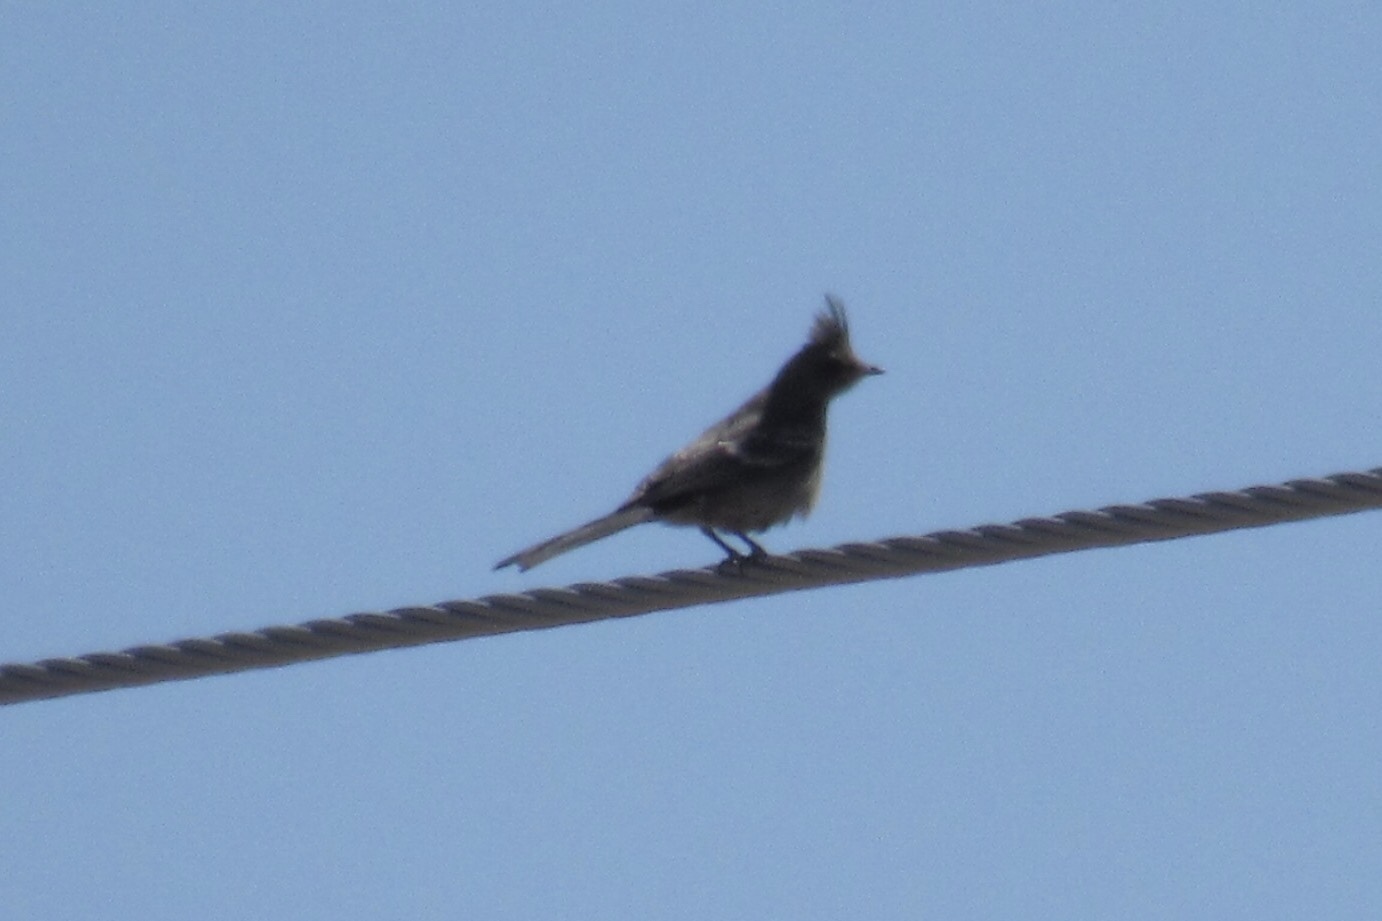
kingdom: Animalia
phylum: Chordata
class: Aves
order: Passeriformes
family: Ptilogonatidae
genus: Phainopepla
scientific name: Phainopepla nitens
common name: Phainopepla
